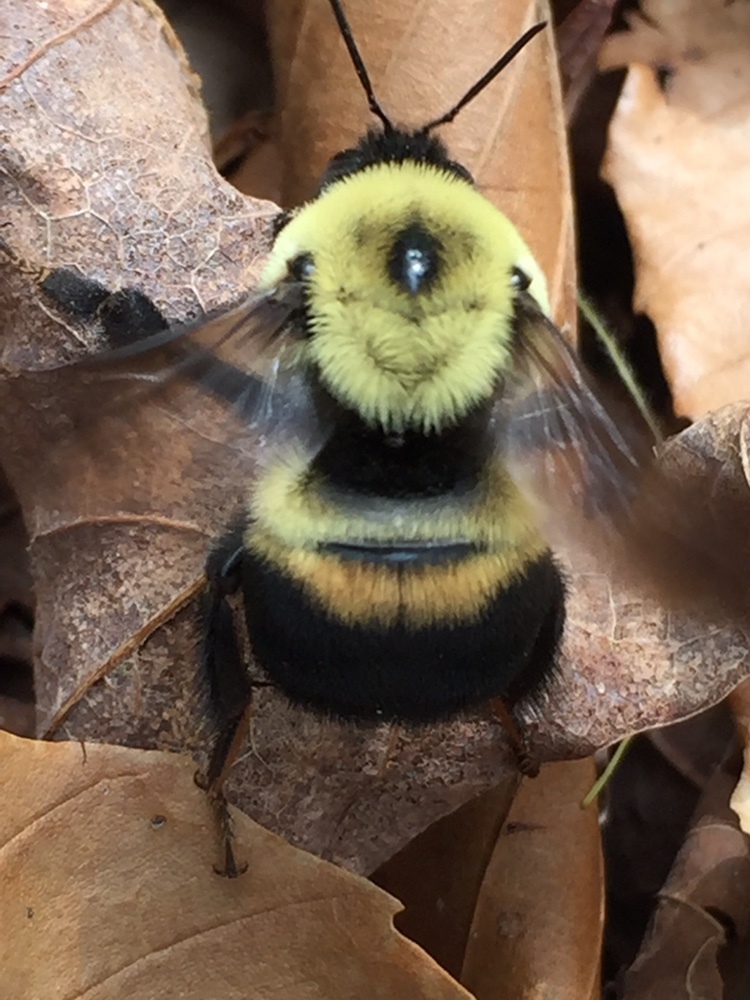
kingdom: Animalia
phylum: Arthropoda
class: Insecta
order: Hymenoptera
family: Apidae
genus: Bombus
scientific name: Bombus griseocollis
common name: Brown-belted bumble bee
